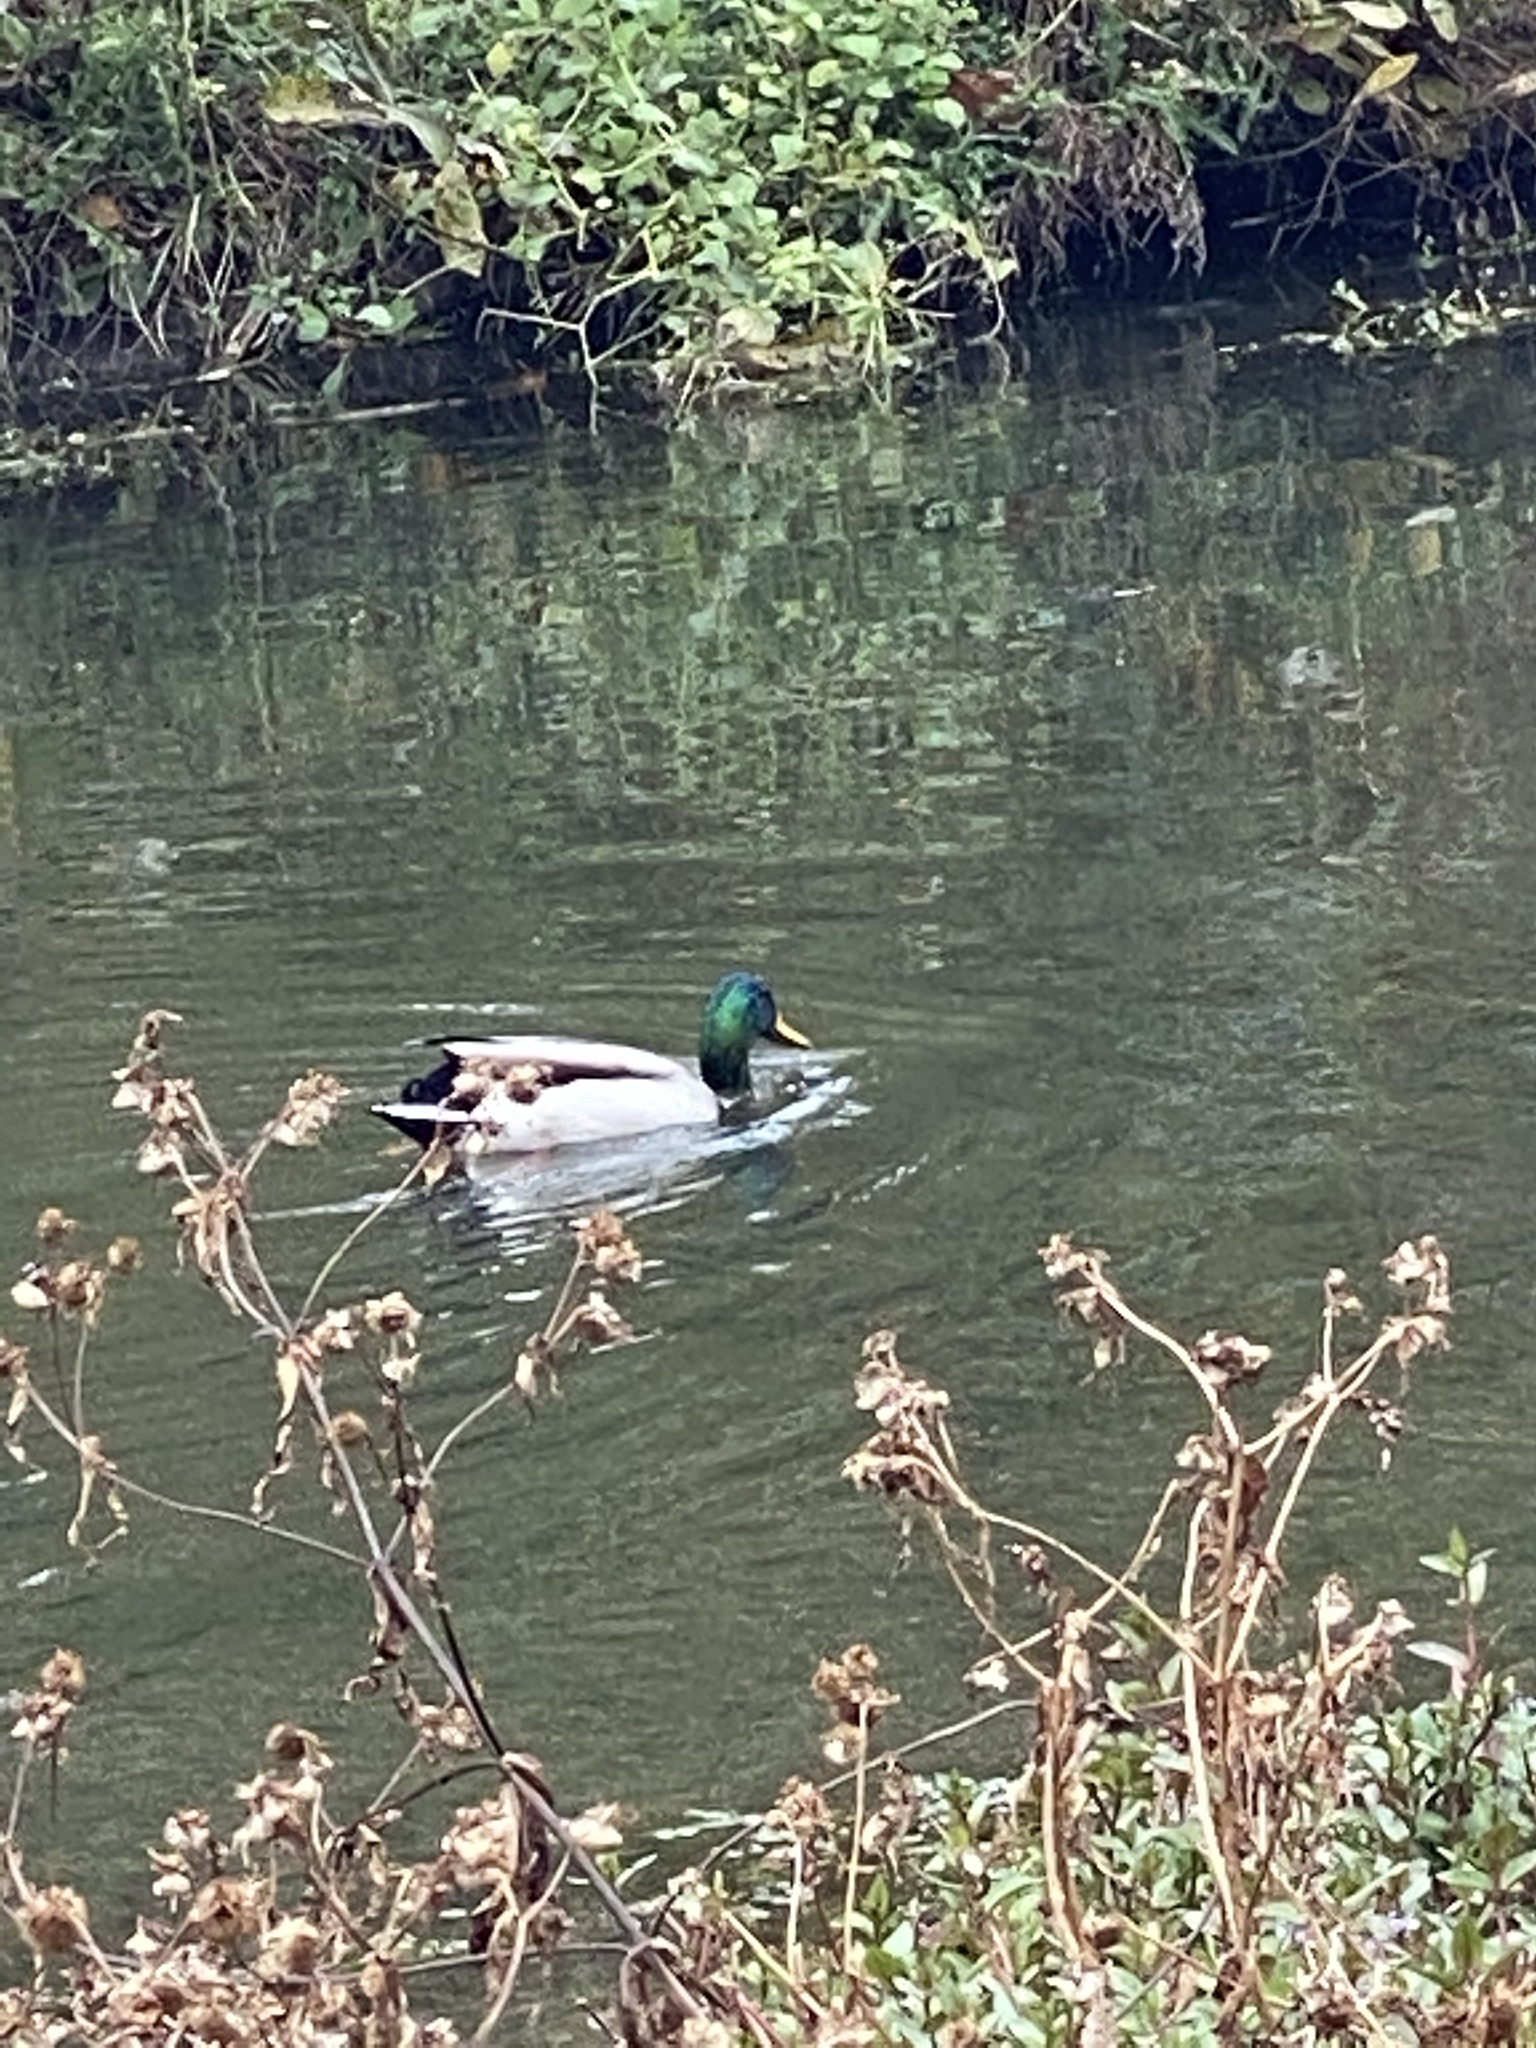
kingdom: Animalia
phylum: Chordata
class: Aves
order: Anseriformes
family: Anatidae
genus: Anas
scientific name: Anas platyrhynchos
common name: Mallard
